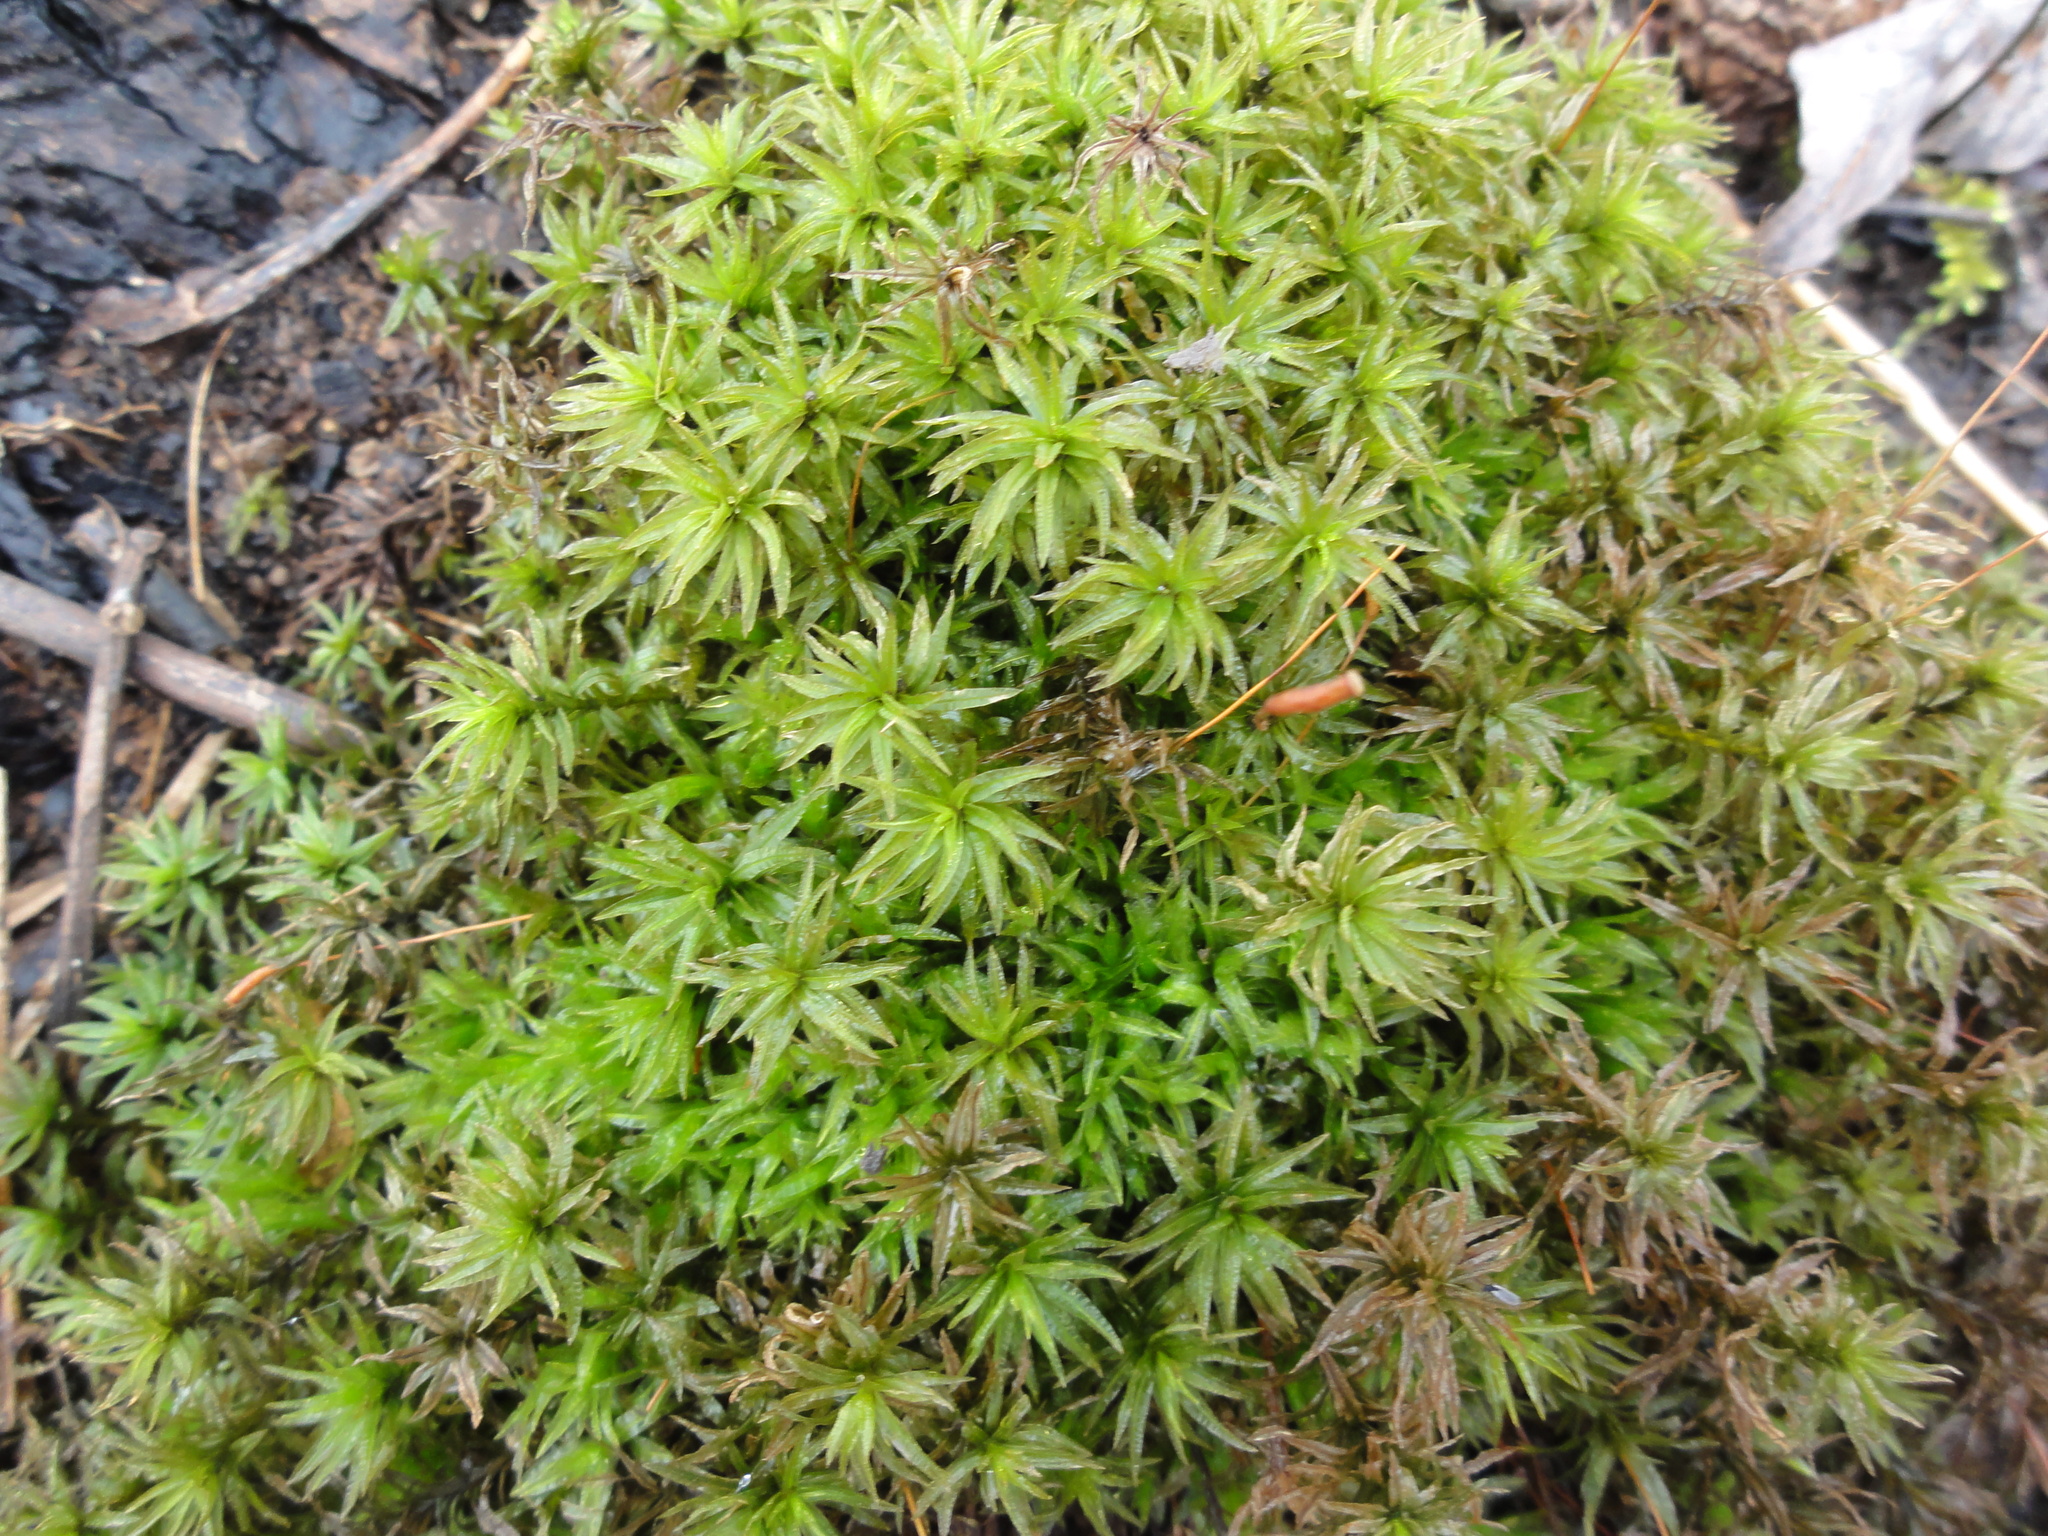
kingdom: Plantae
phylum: Bryophyta
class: Polytrichopsida
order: Polytrichales
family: Polytrichaceae
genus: Atrichum
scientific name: Atrichum undulatum
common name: Common smoothcap
